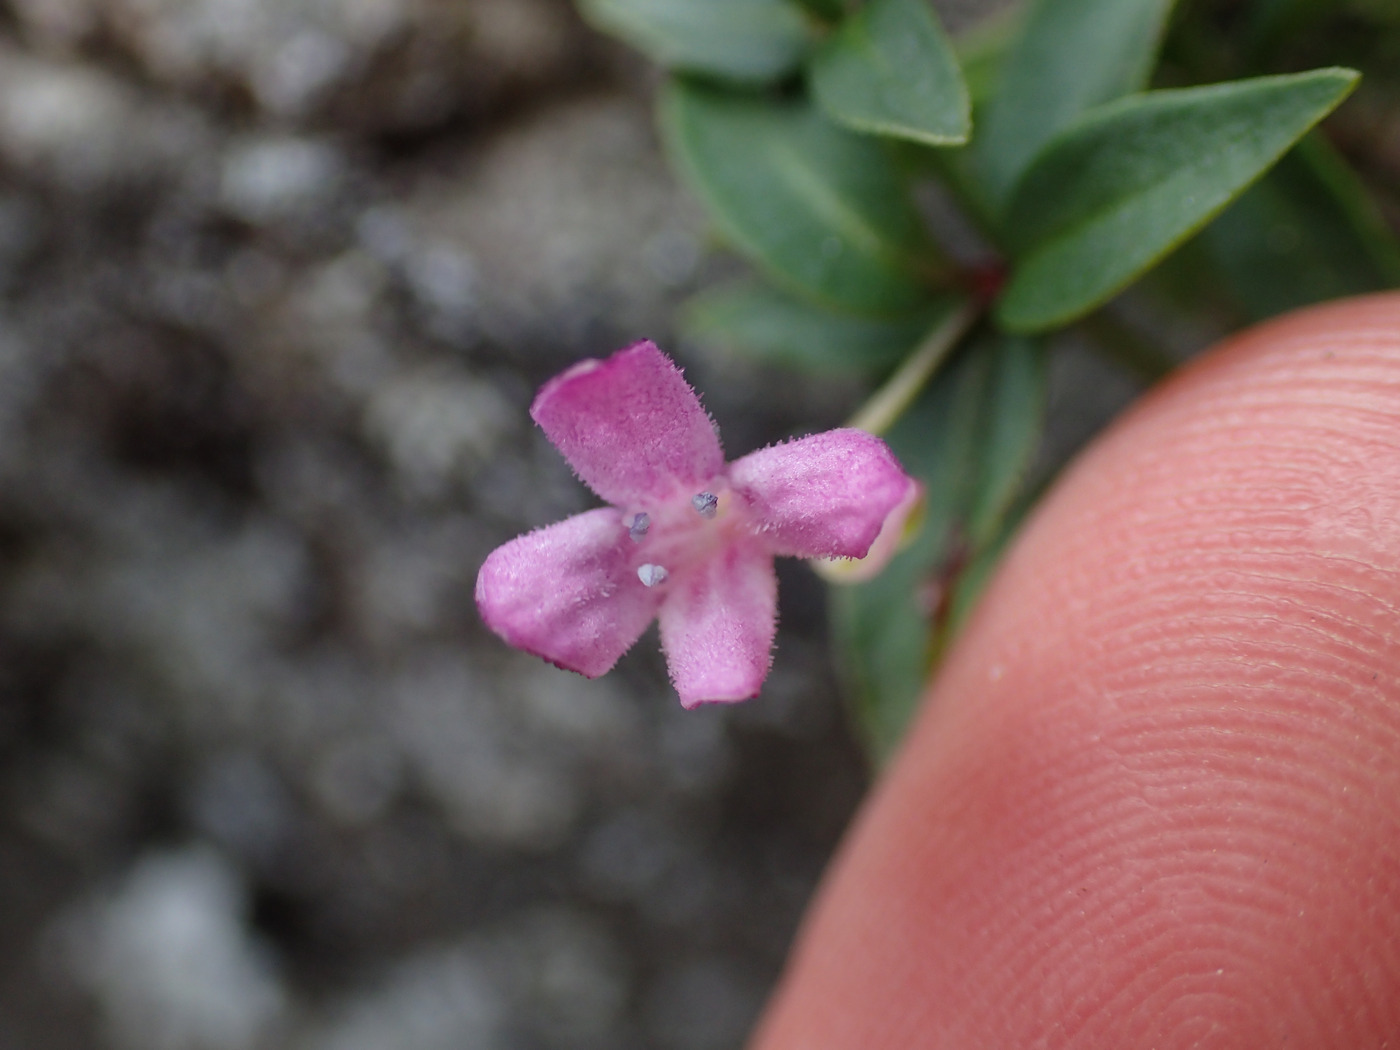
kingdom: Plantae
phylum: Tracheophyta
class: Magnoliopsida
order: Gentianales
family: Rubiaceae
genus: Houstonia
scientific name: Houstonia purpurea
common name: Summer bluet
